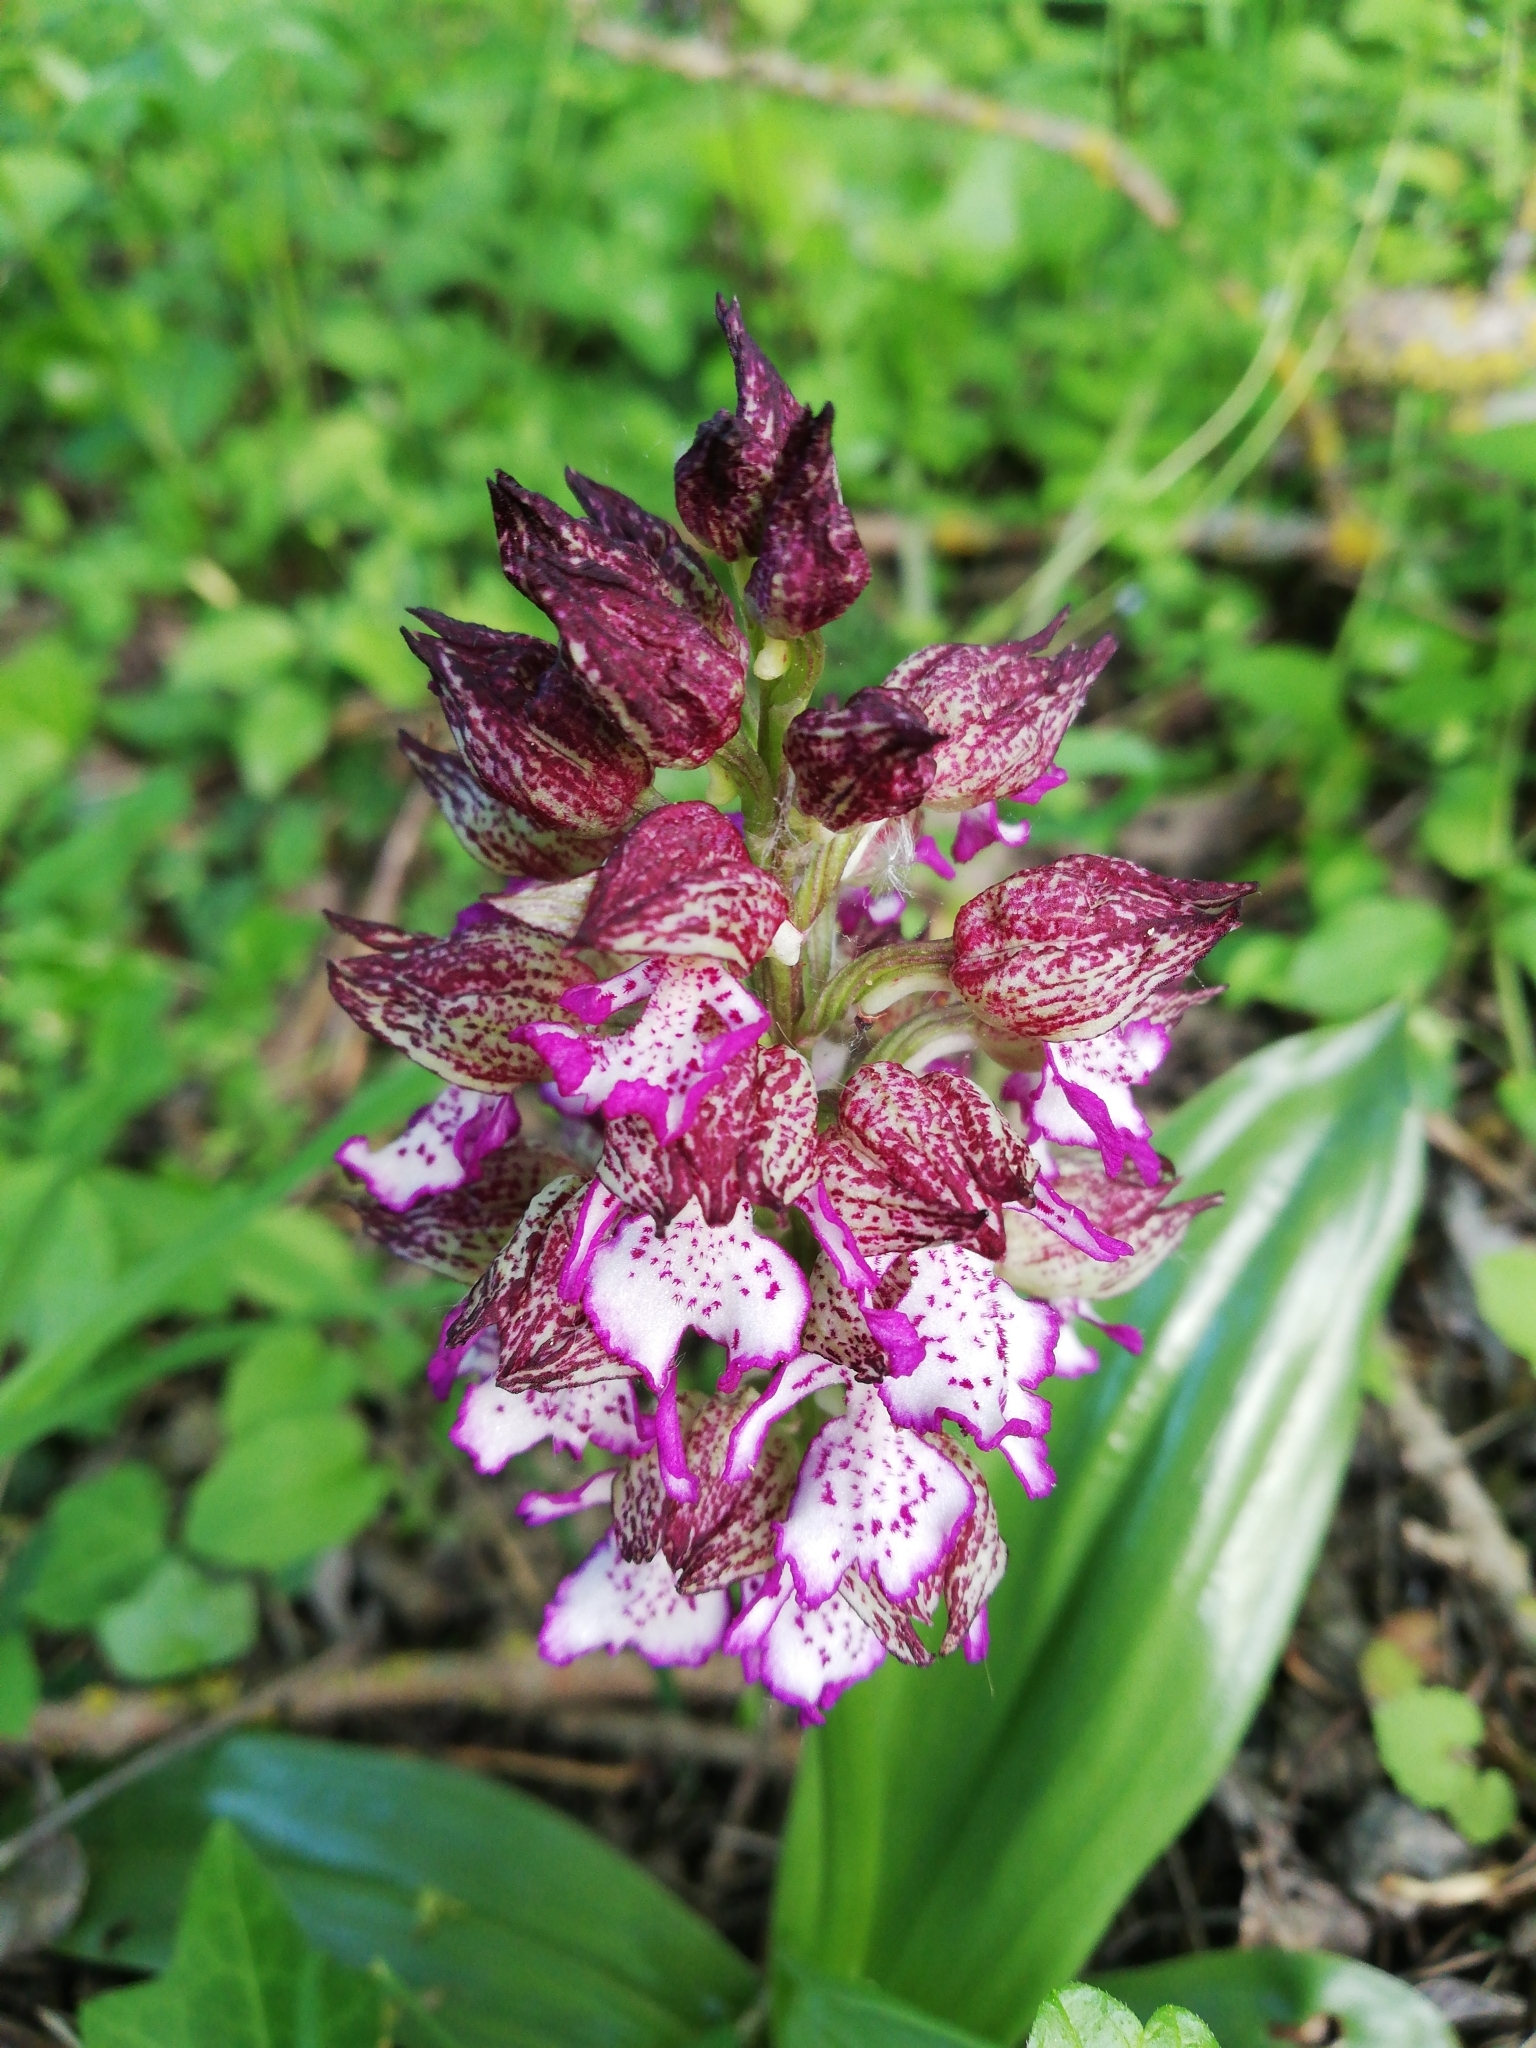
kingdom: Plantae
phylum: Tracheophyta
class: Liliopsida
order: Asparagales
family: Orchidaceae
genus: Orchis
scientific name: Orchis purpurea
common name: Lady orchid
